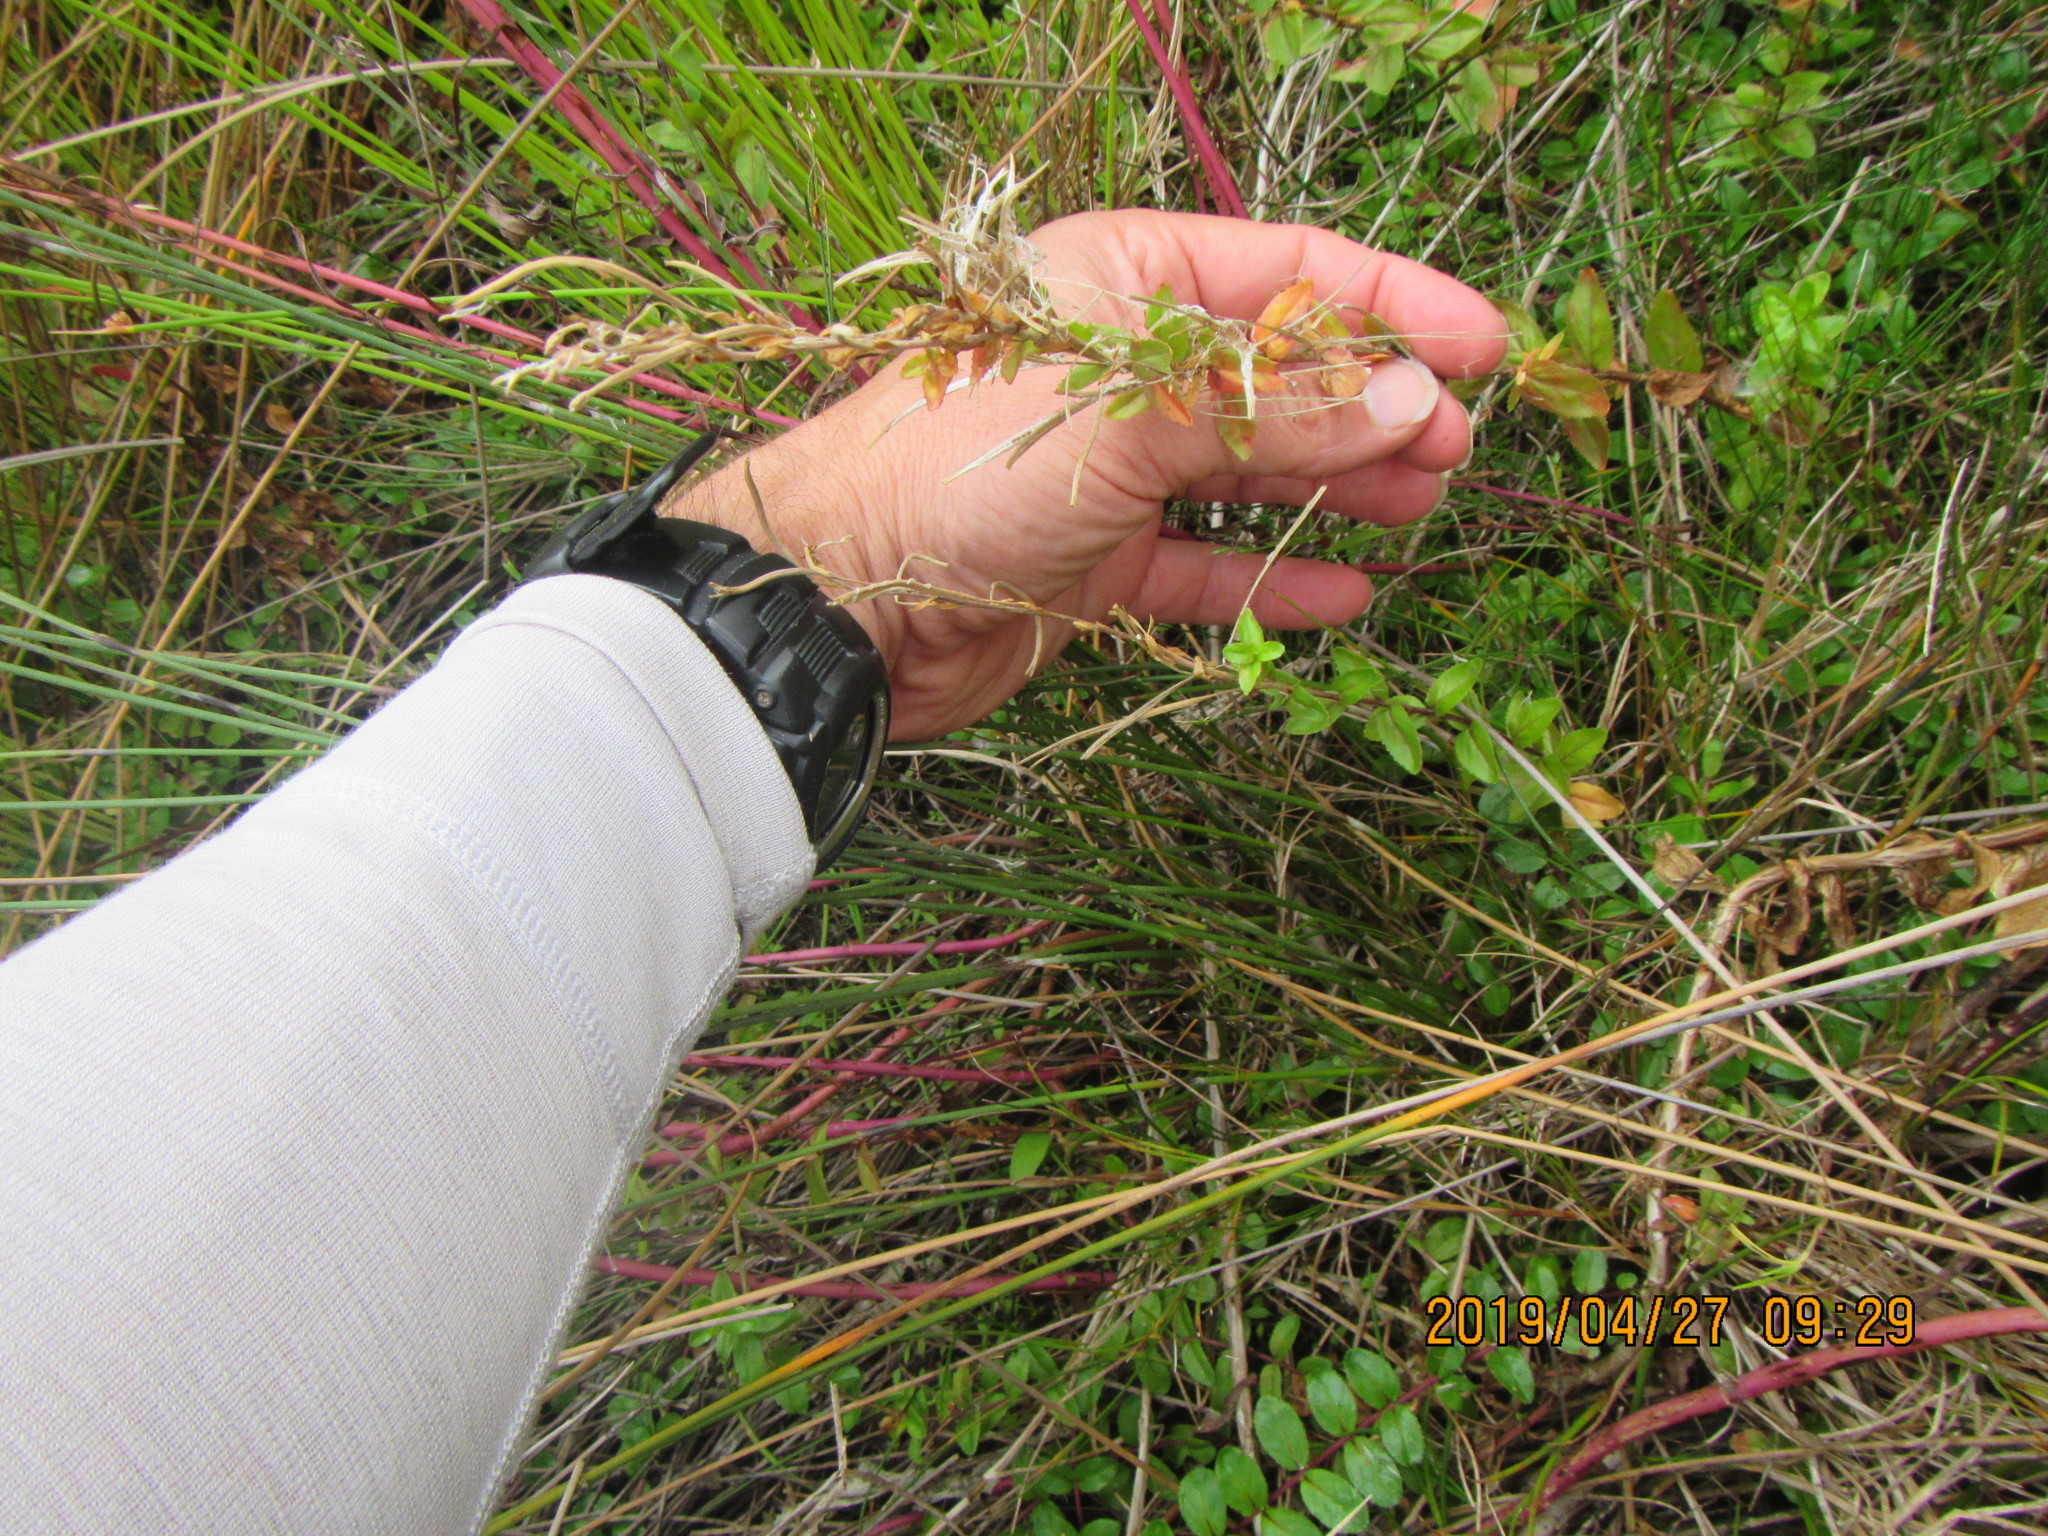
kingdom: Plantae
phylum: Tracheophyta
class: Magnoliopsida
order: Myrtales
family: Onagraceae
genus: Epilobium
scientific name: Epilobium billardiereanum
